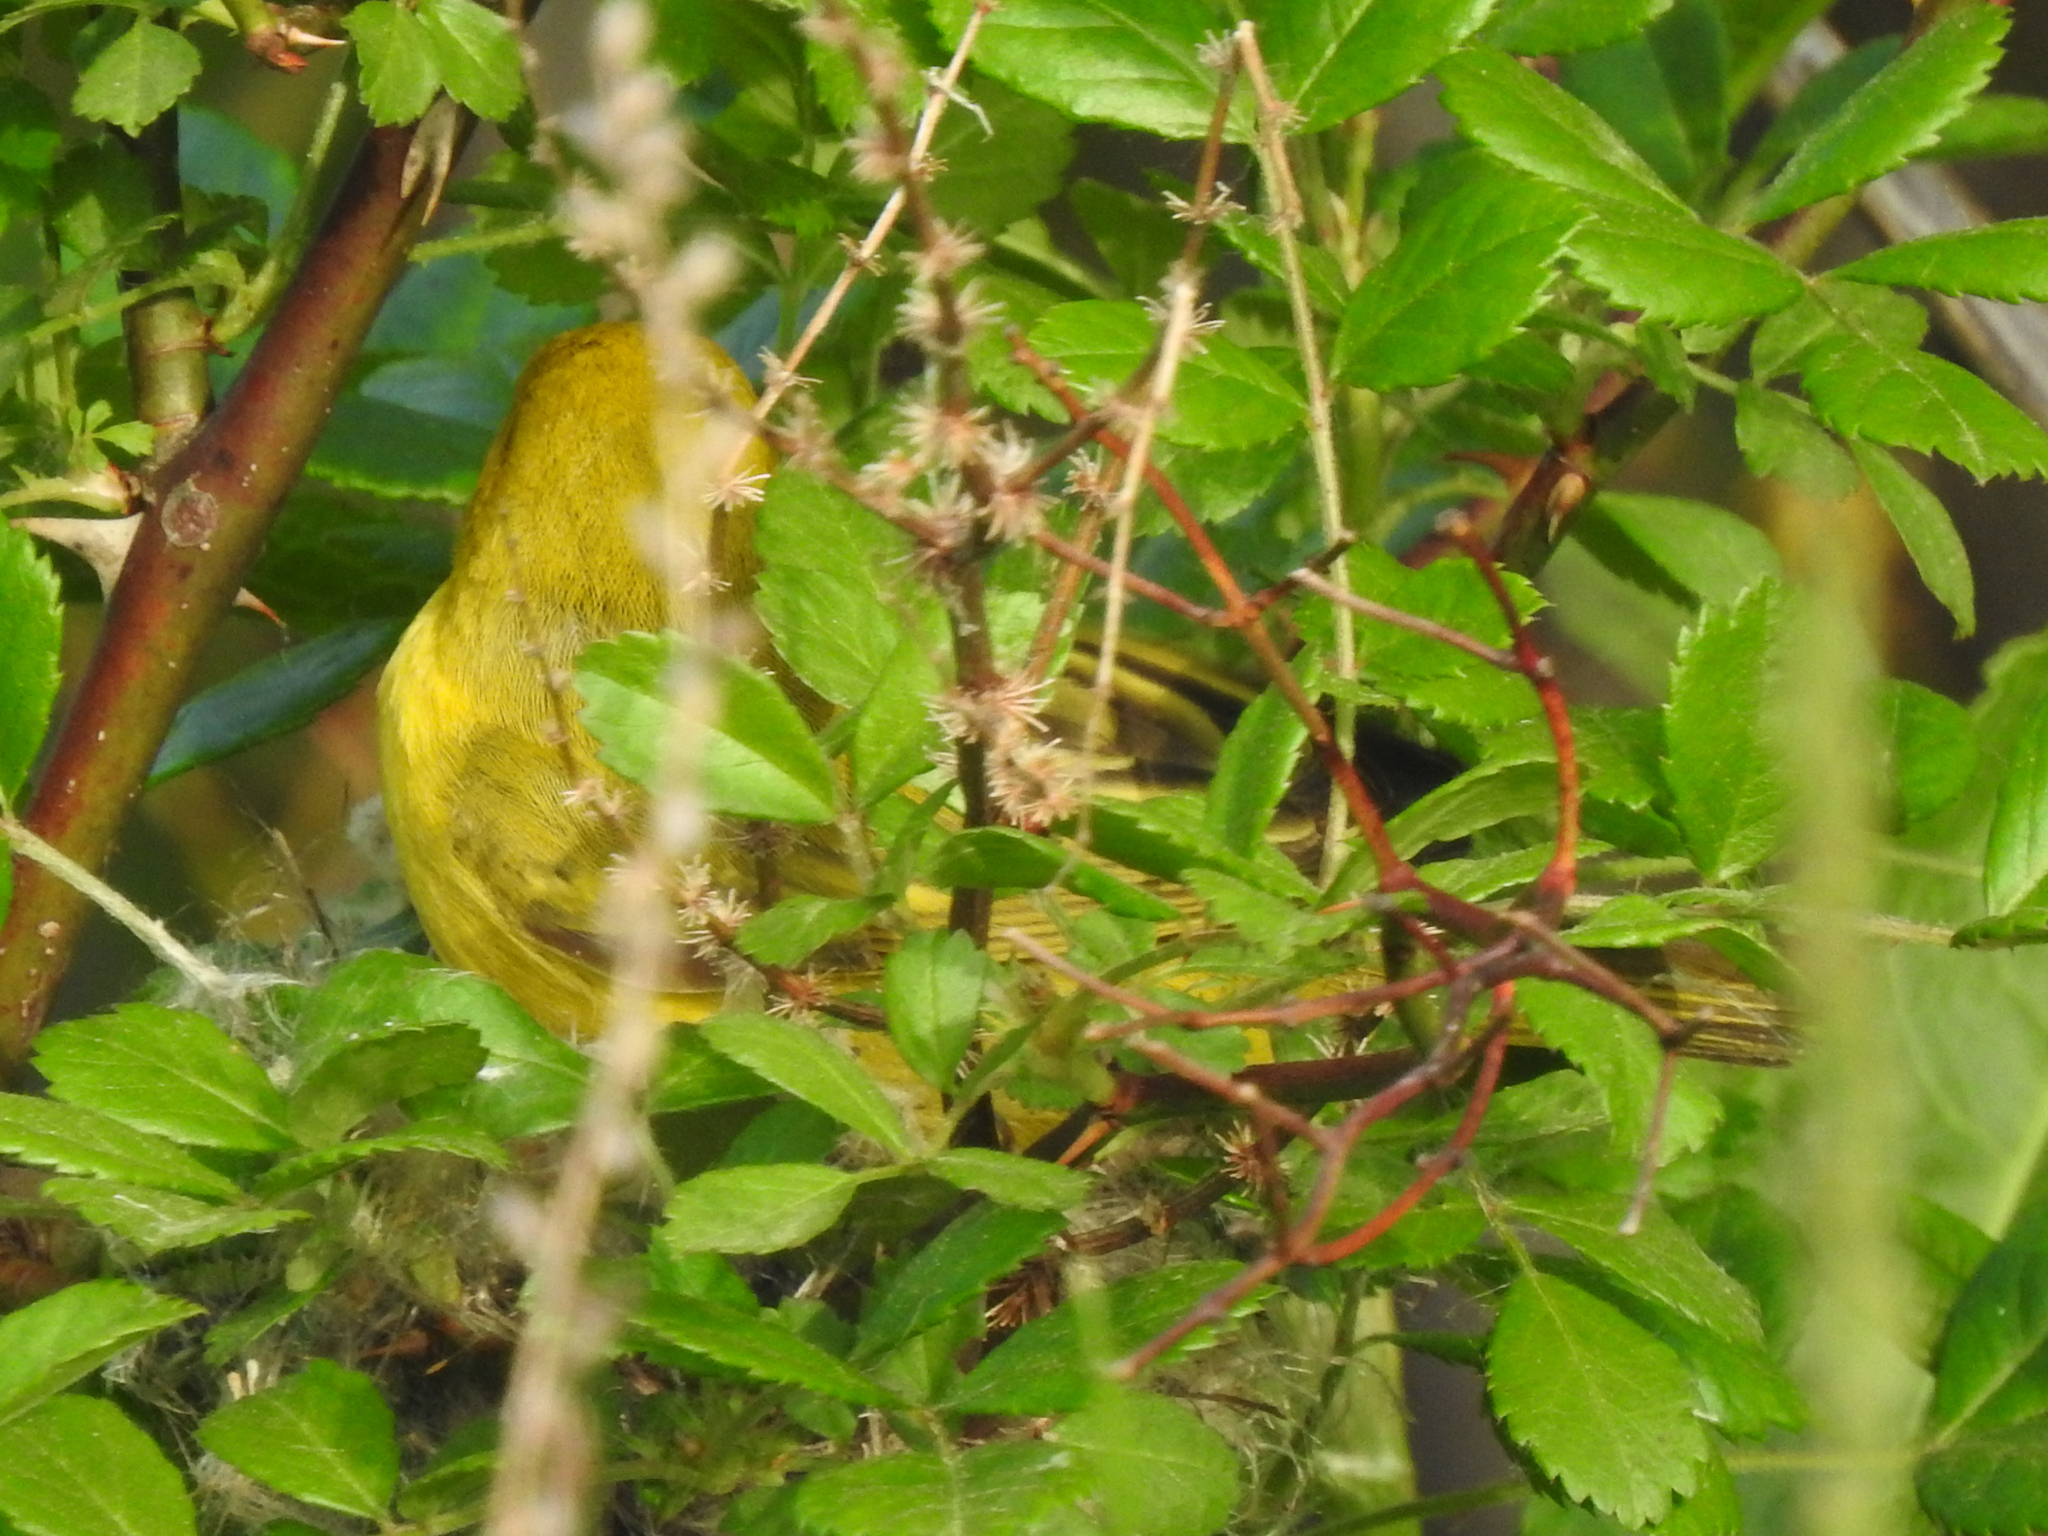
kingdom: Animalia
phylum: Chordata
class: Aves
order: Passeriformes
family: Parulidae
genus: Setophaga
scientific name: Setophaga petechia
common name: Yellow warbler
